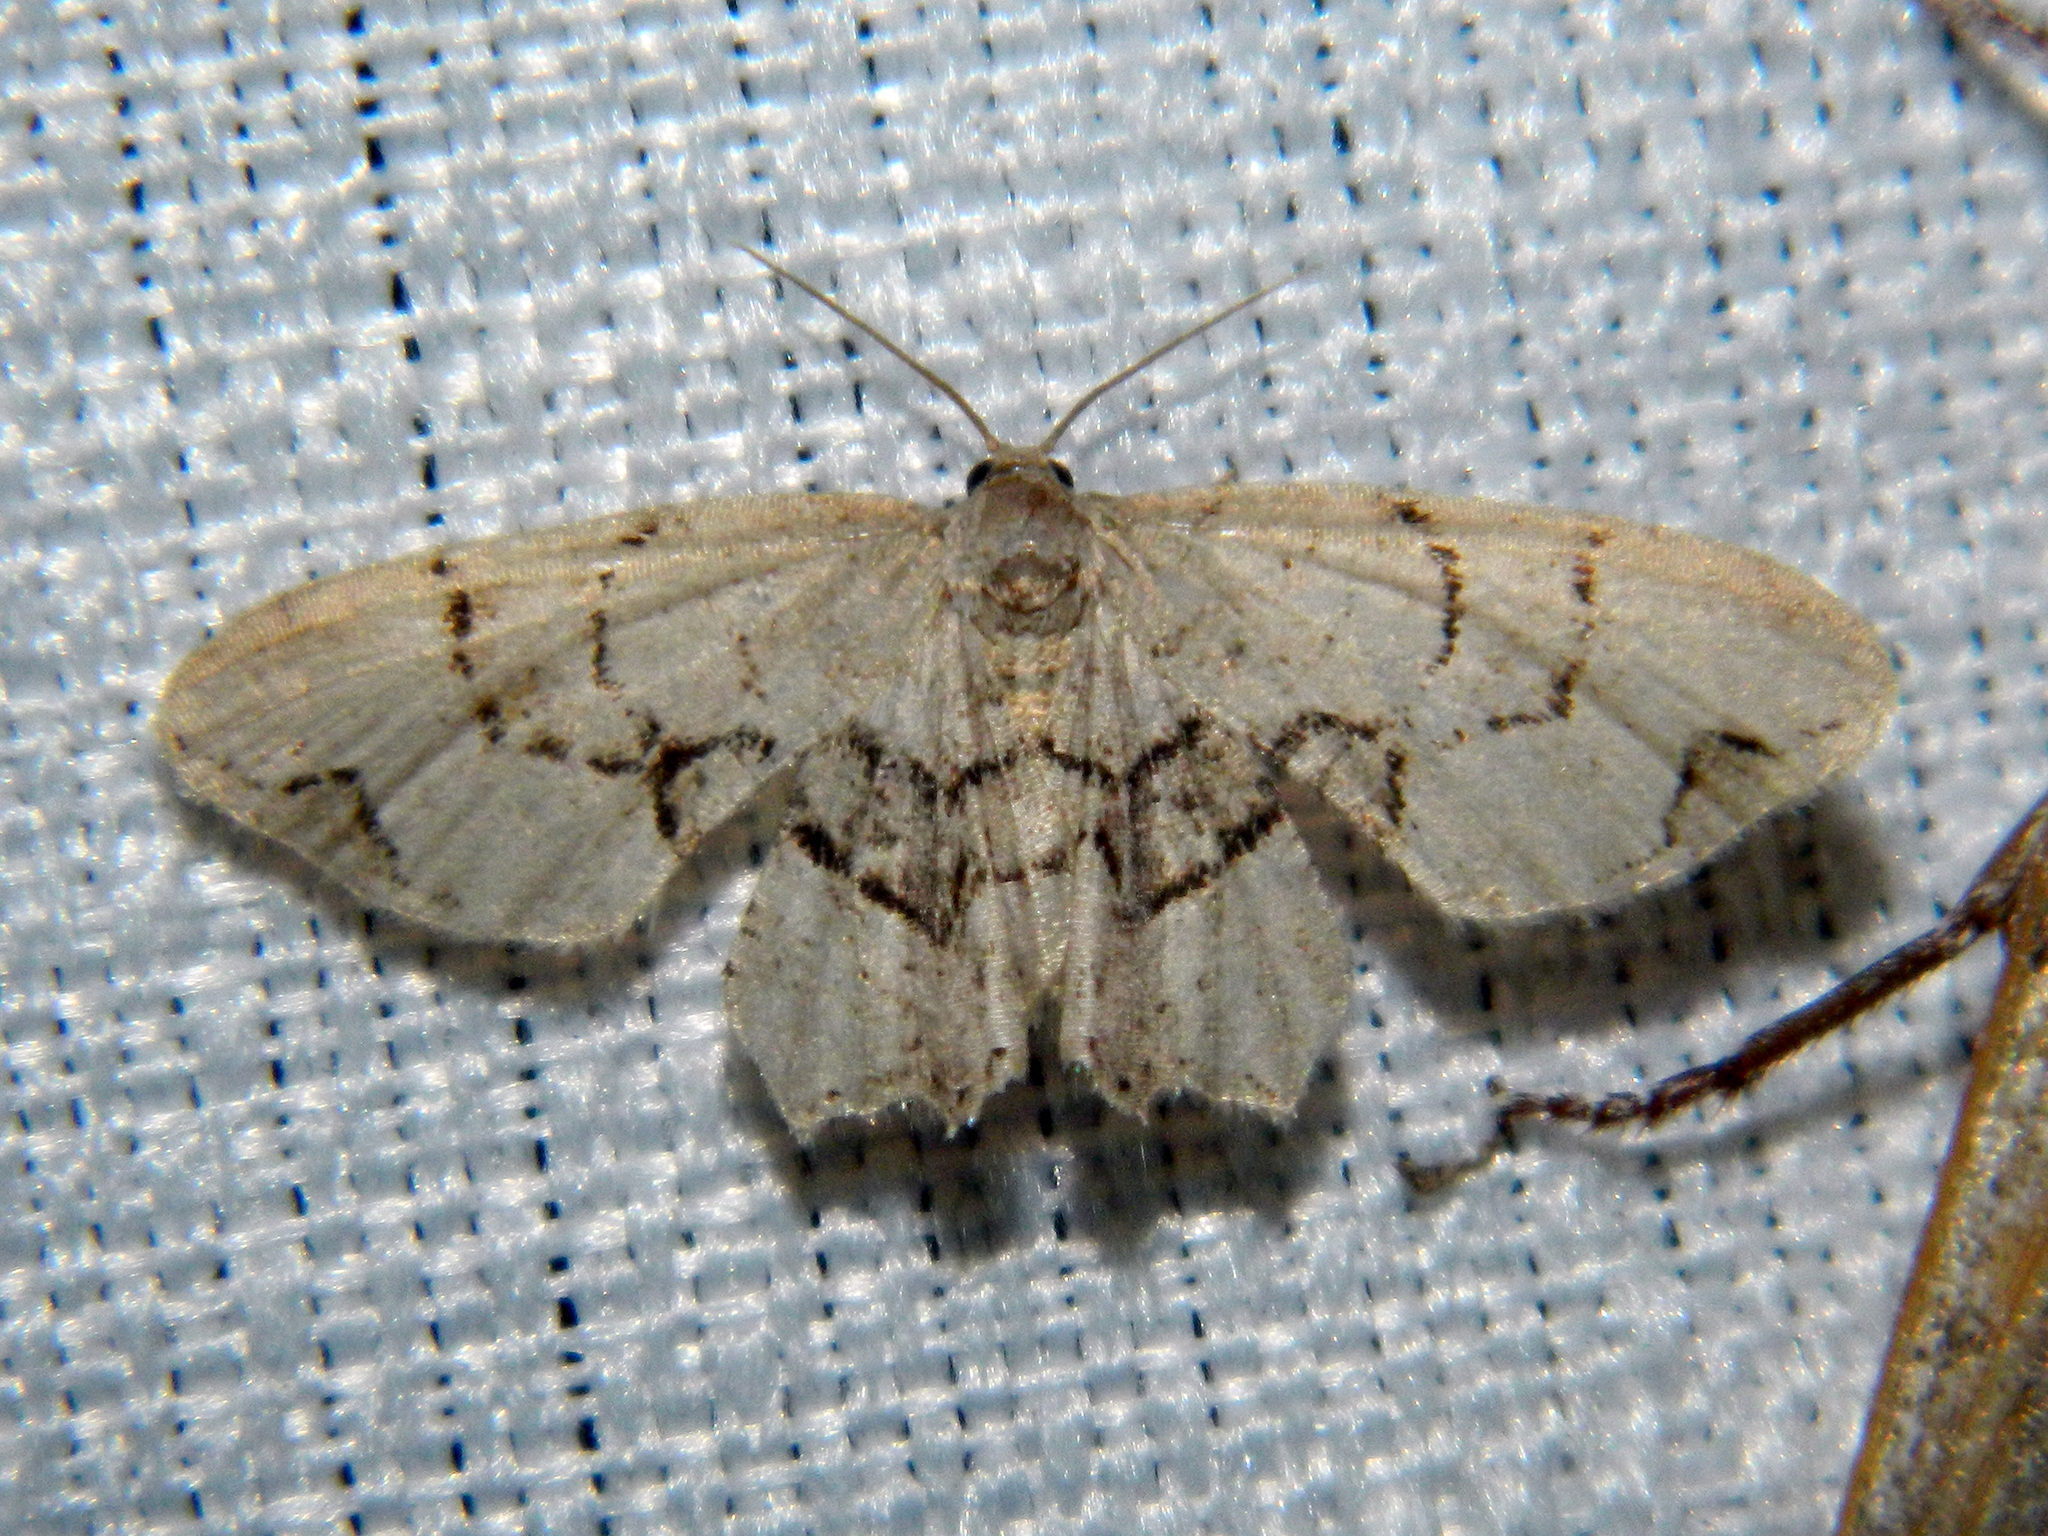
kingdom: Animalia
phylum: Arthropoda
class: Insecta
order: Lepidoptera
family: Uraniidae
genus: Epiplema
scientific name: Epiplema Callizzia amorata
